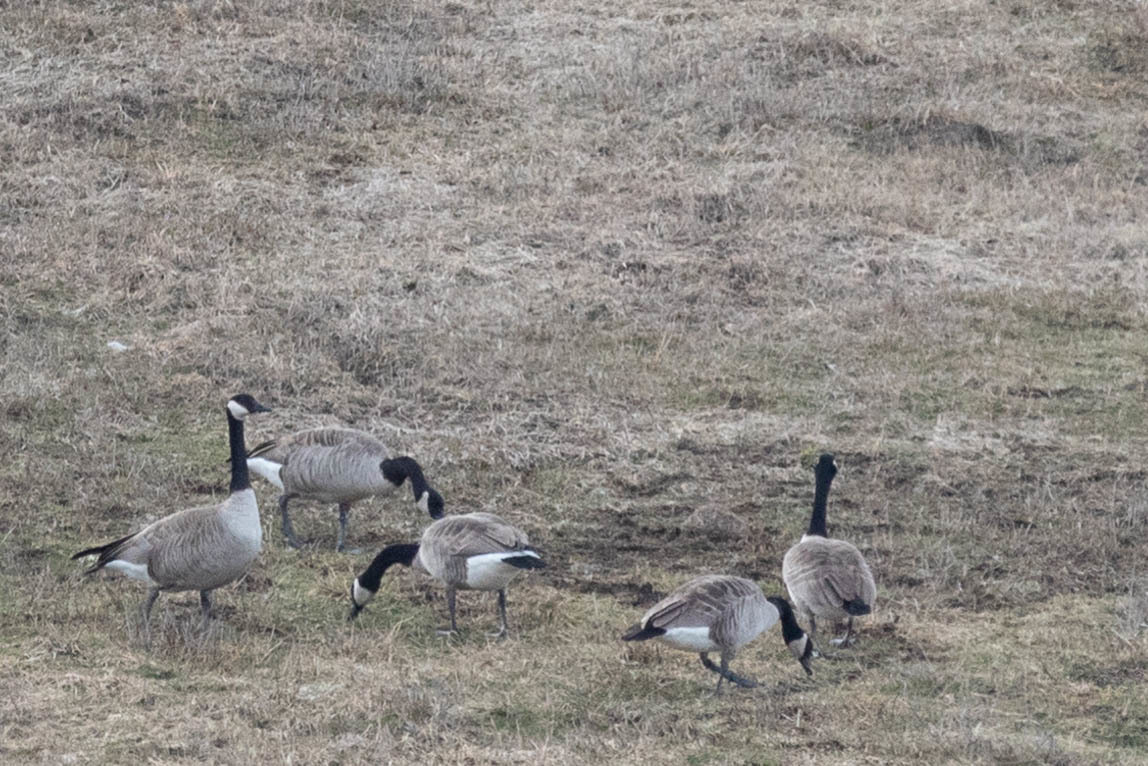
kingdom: Animalia
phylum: Chordata
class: Aves
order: Anseriformes
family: Anatidae
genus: Branta
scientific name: Branta canadensis
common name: Canada goose
